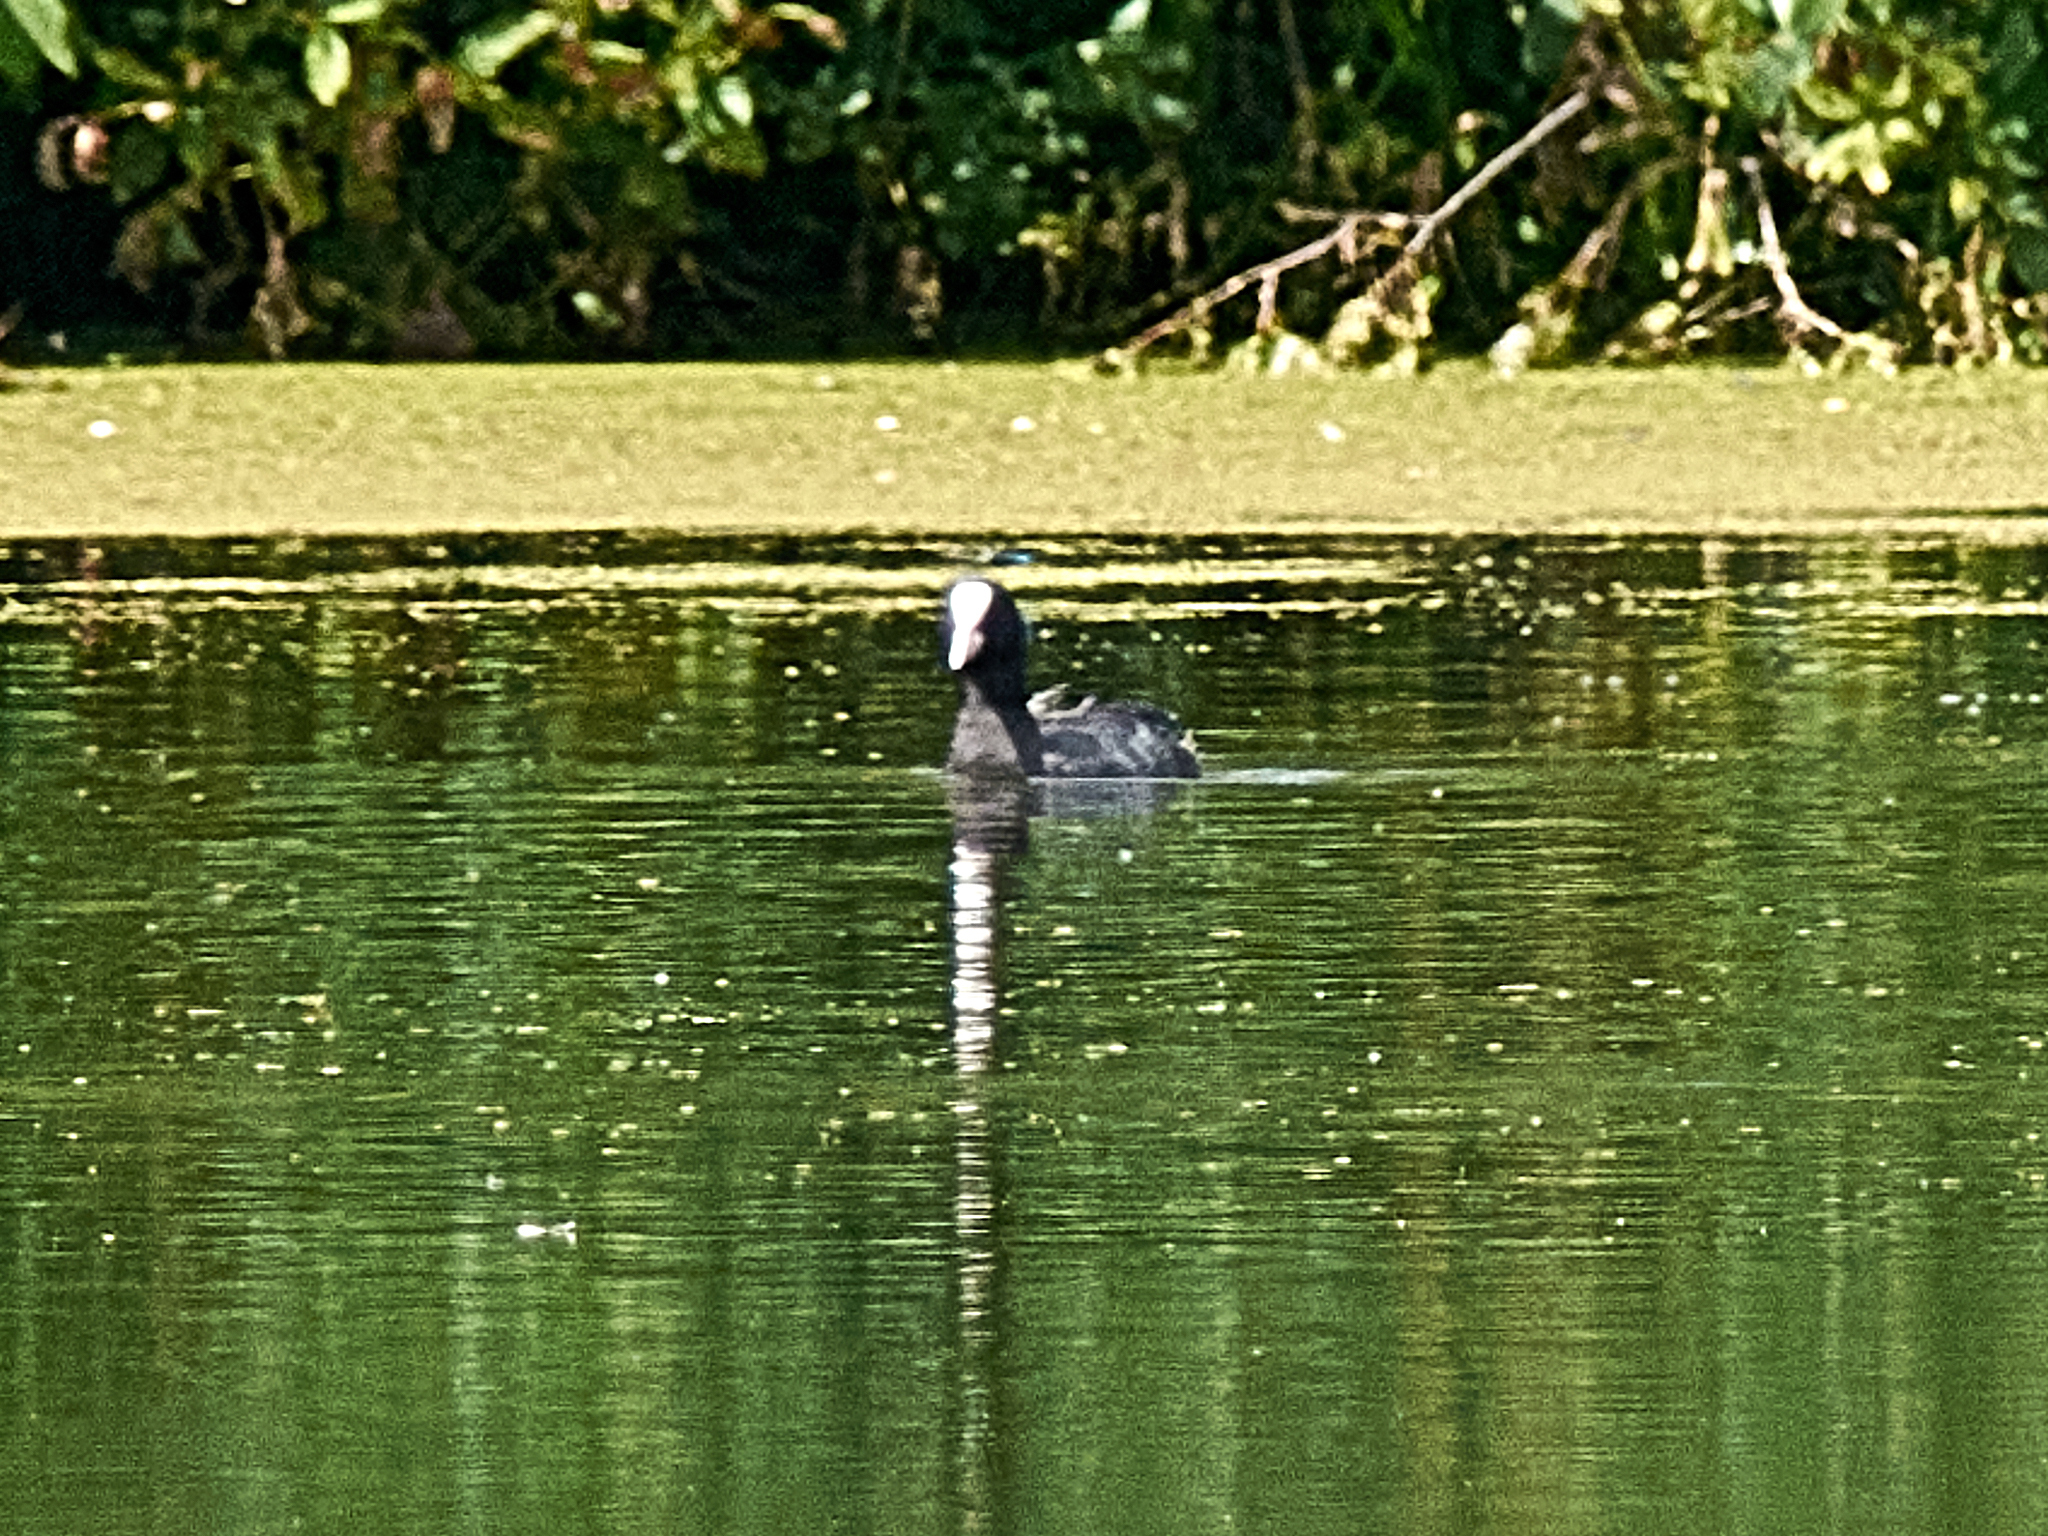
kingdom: Animalia
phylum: Chordata
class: Aves
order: Gruiformes
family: Rallidae
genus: Fulica
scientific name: Fulica atra
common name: Eurasian coot
